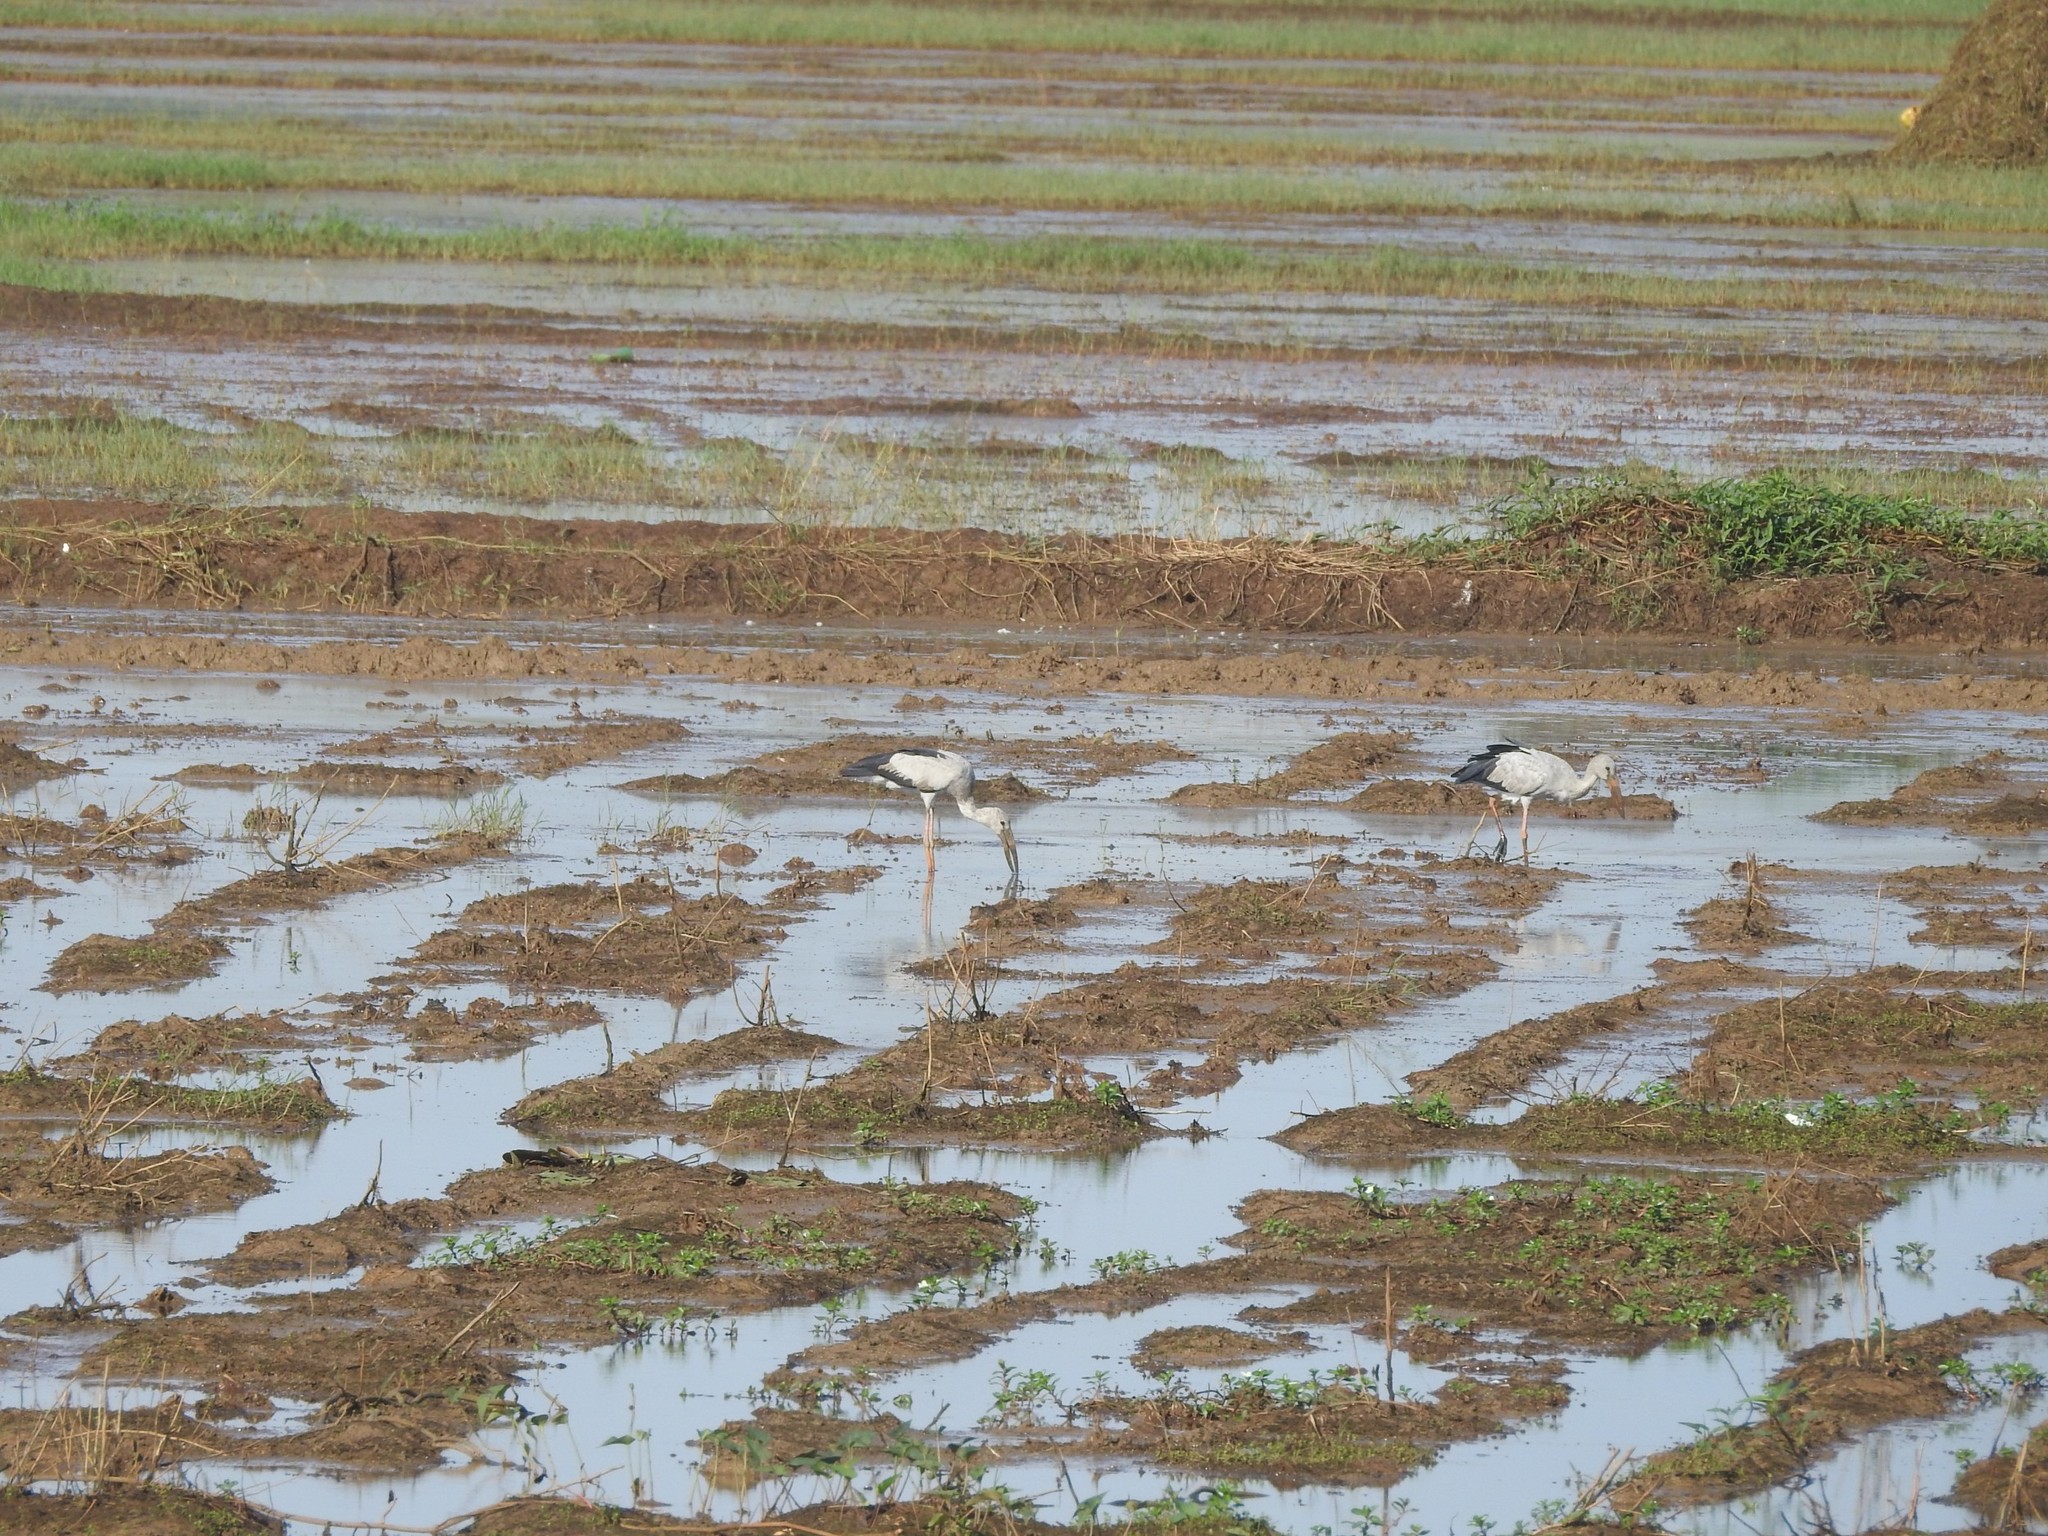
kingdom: Animalia
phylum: Chordata
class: Aves
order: Ciconiiformes
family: Ciconiidae
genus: Anastomus
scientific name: Anastomus oscitans
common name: Asian openbill
